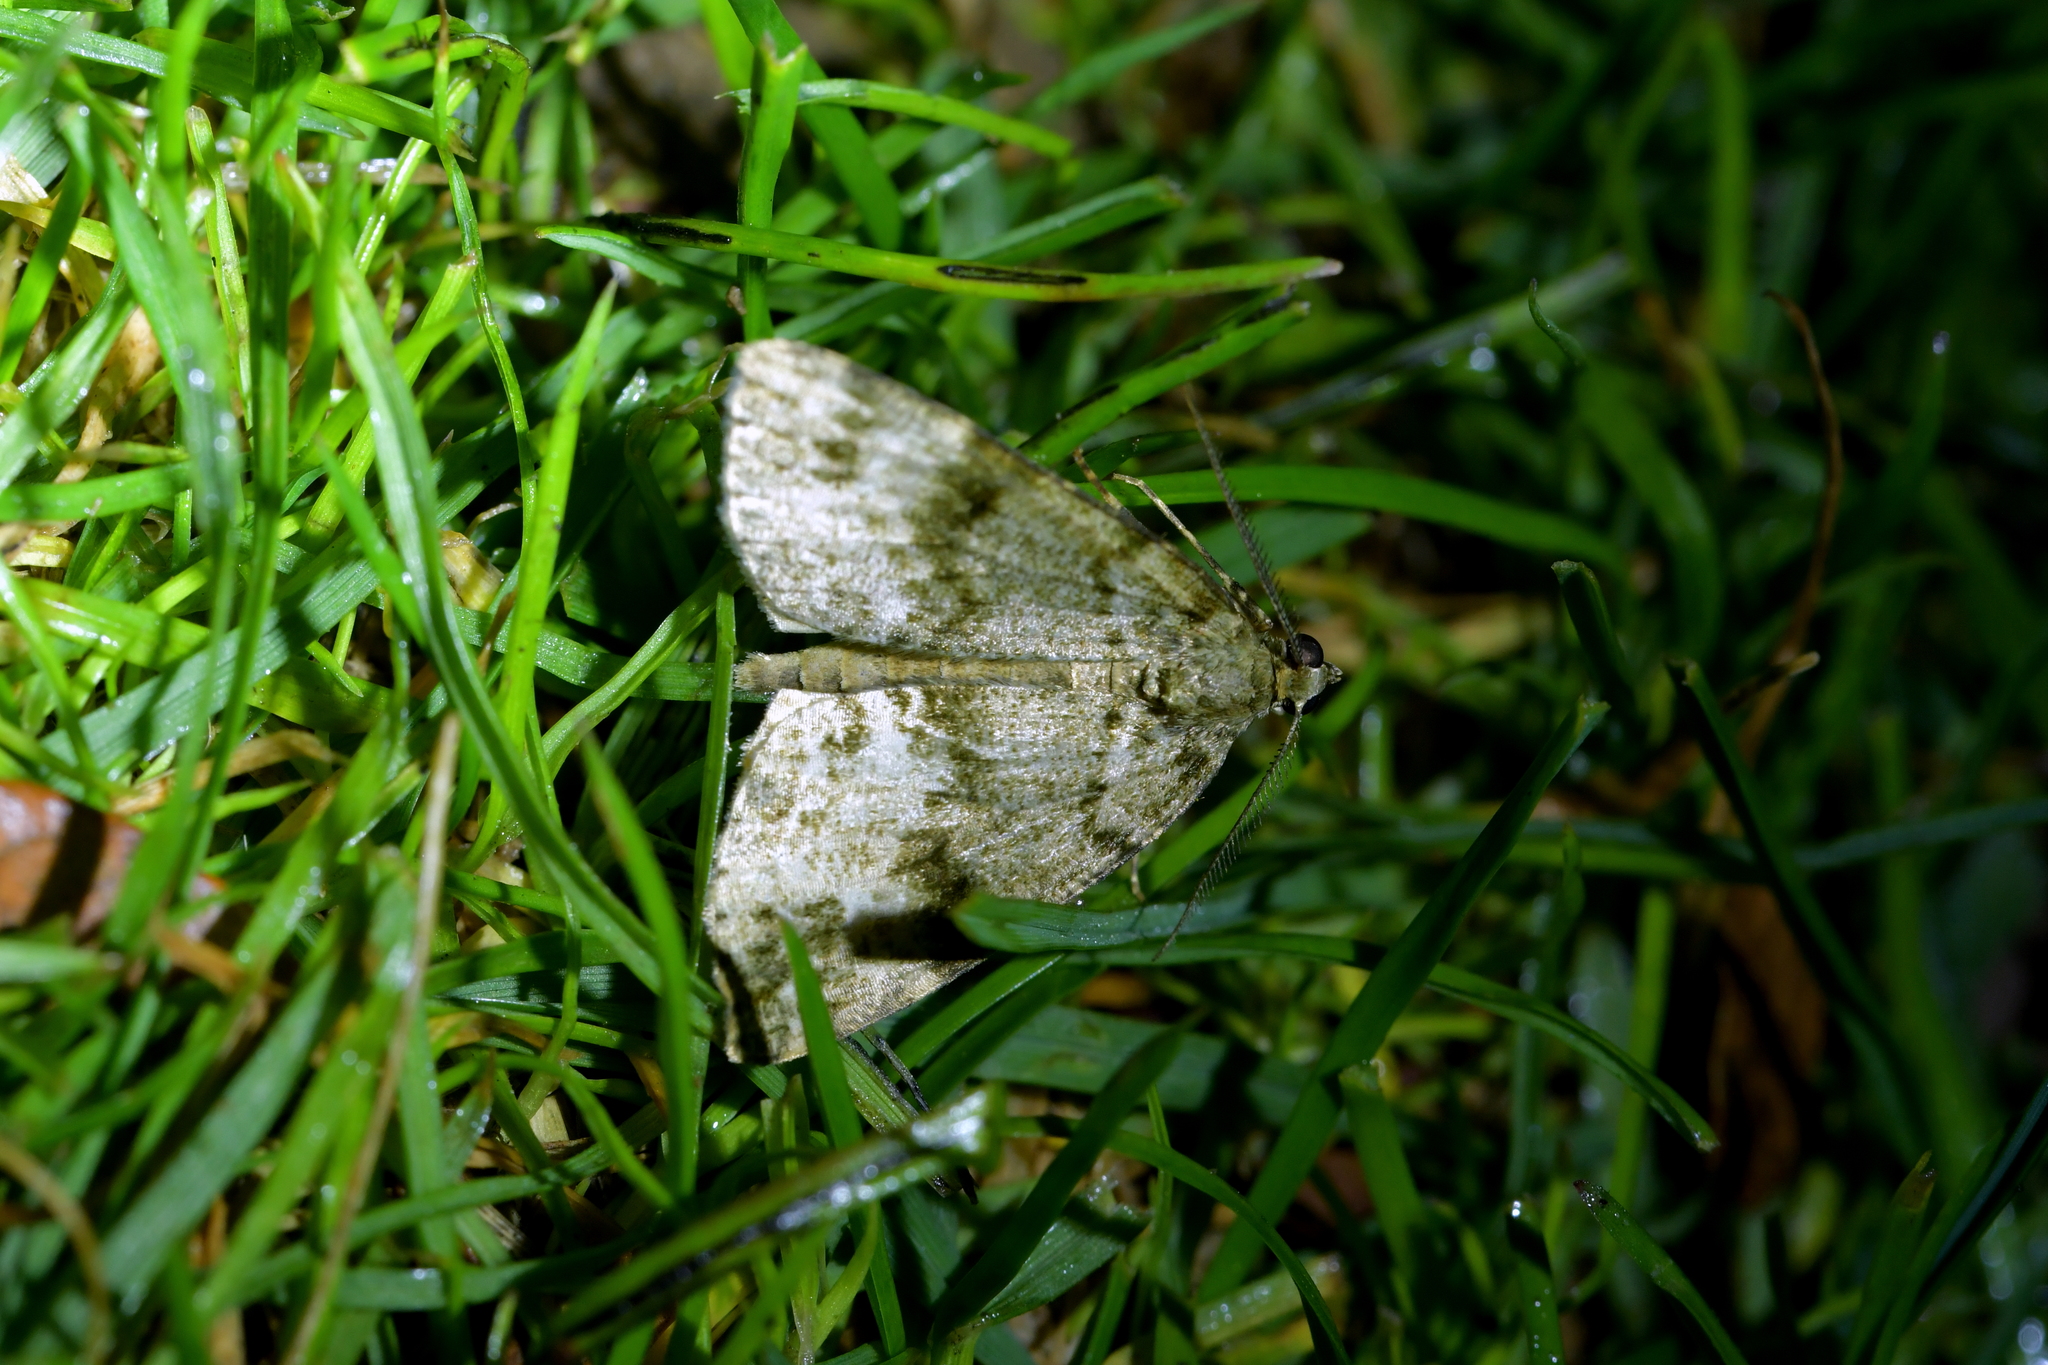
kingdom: Animalia
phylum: Arthropoda
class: Insecta
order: Lepidoptera
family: Geometridae
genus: Pseudocoremia
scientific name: Pseudocoremia indistincta
